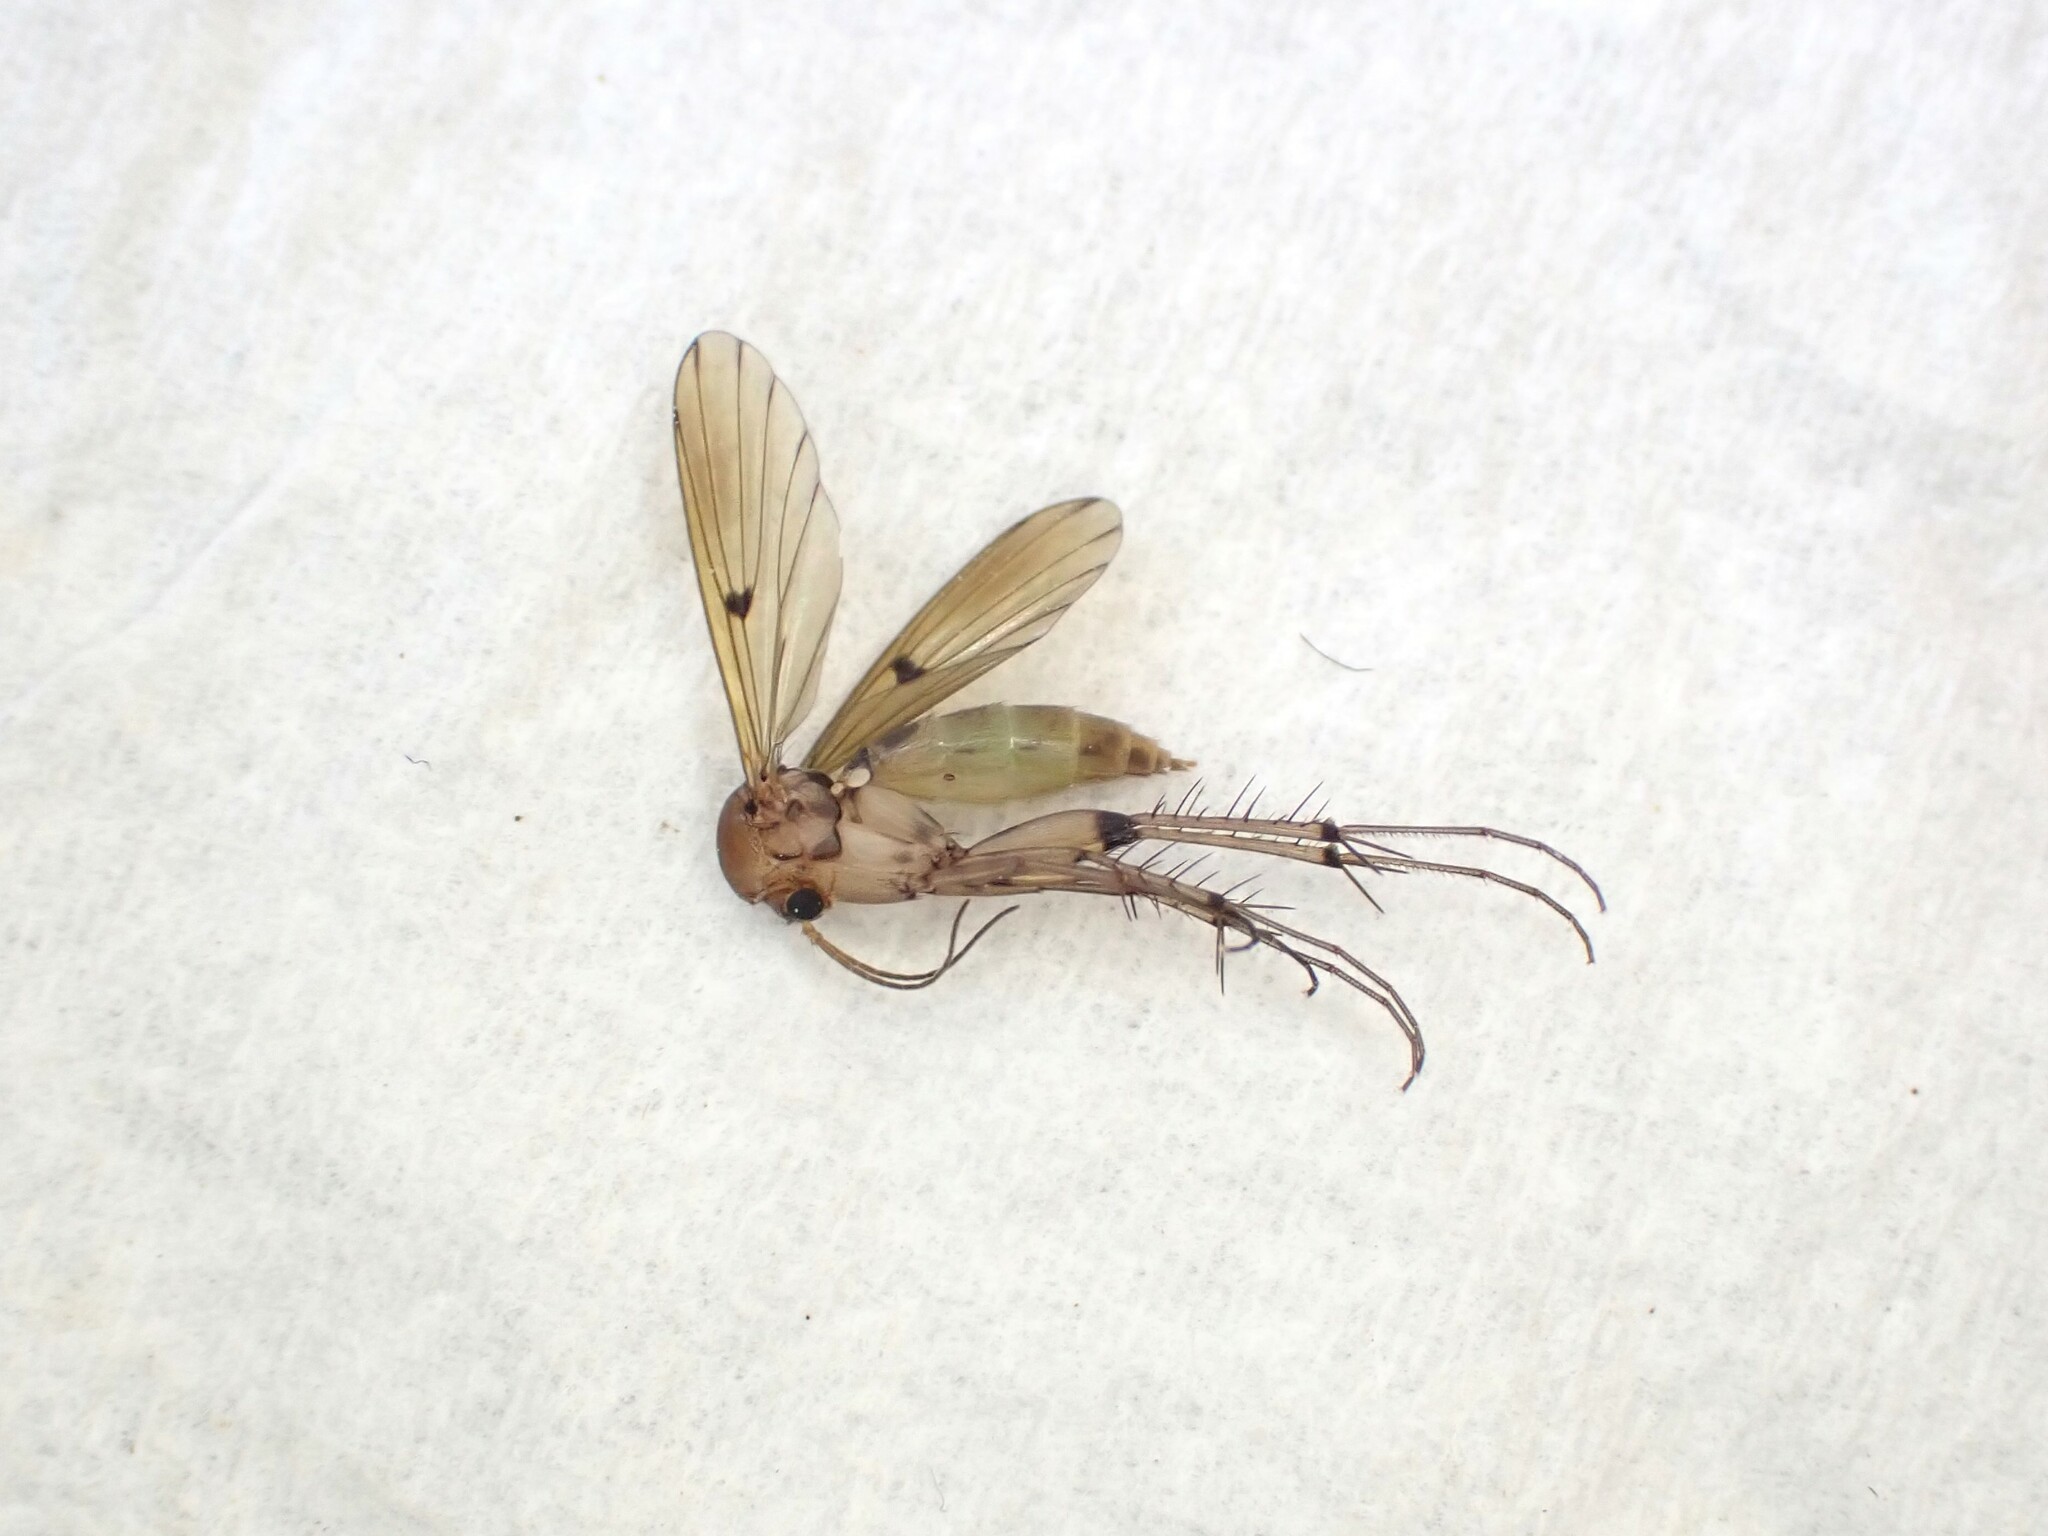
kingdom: Animalia
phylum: Arthropoda
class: Insecta
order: Diptera
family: Mycetophilidae
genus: Mycetophila
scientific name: Mycetophila marginepunctata
